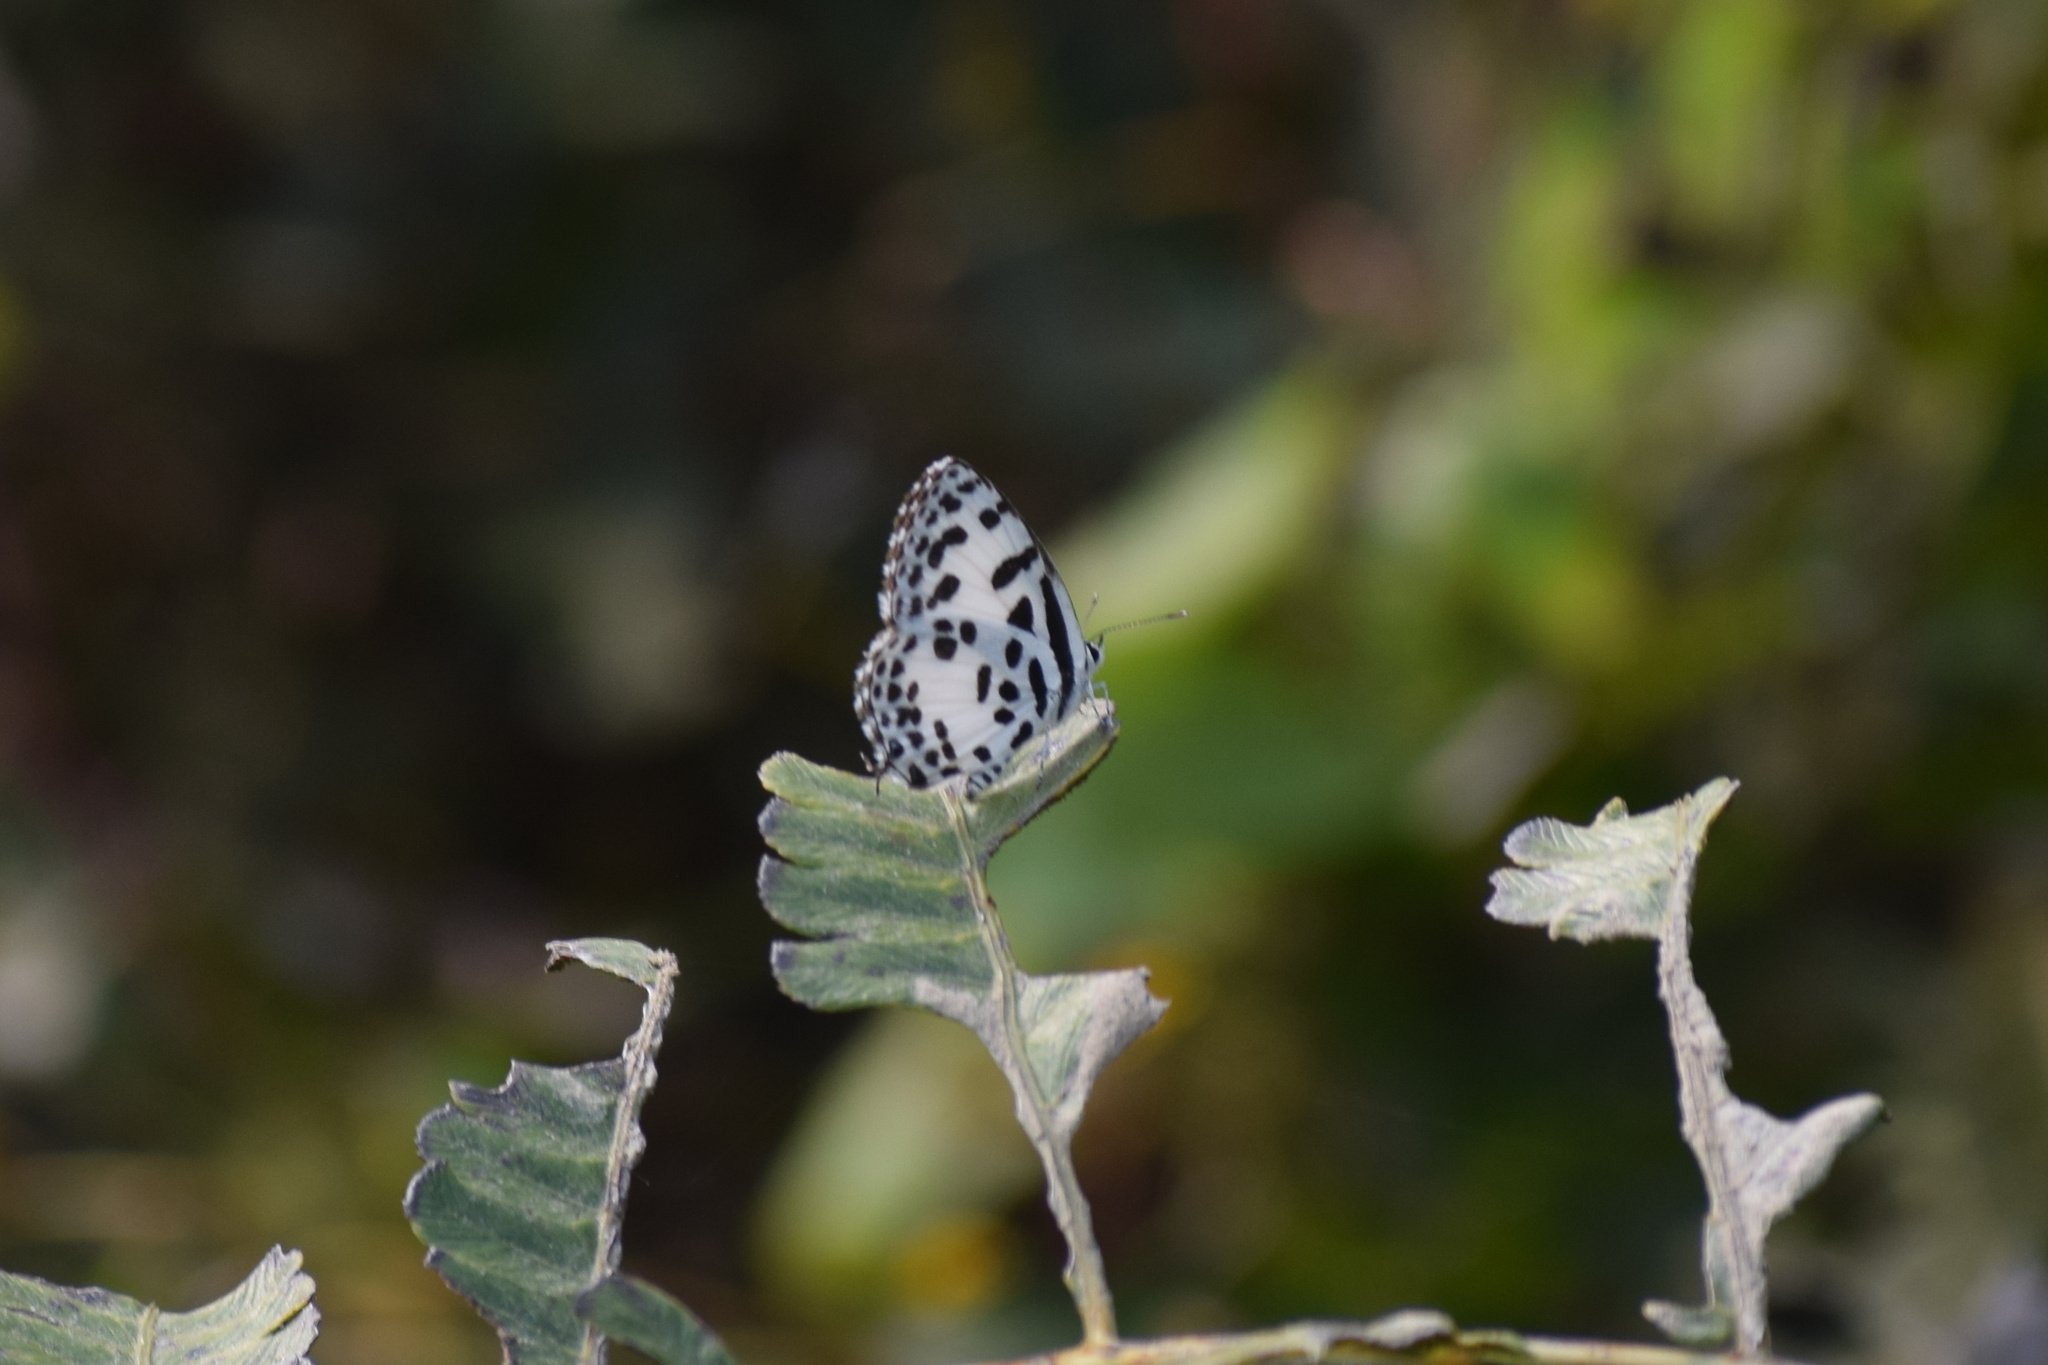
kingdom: Animalia
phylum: Arthropoda
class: Insecta
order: Lepidoptera
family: Lycaenidae
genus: Castalius
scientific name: Castalius rosimon
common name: Common pierrot
